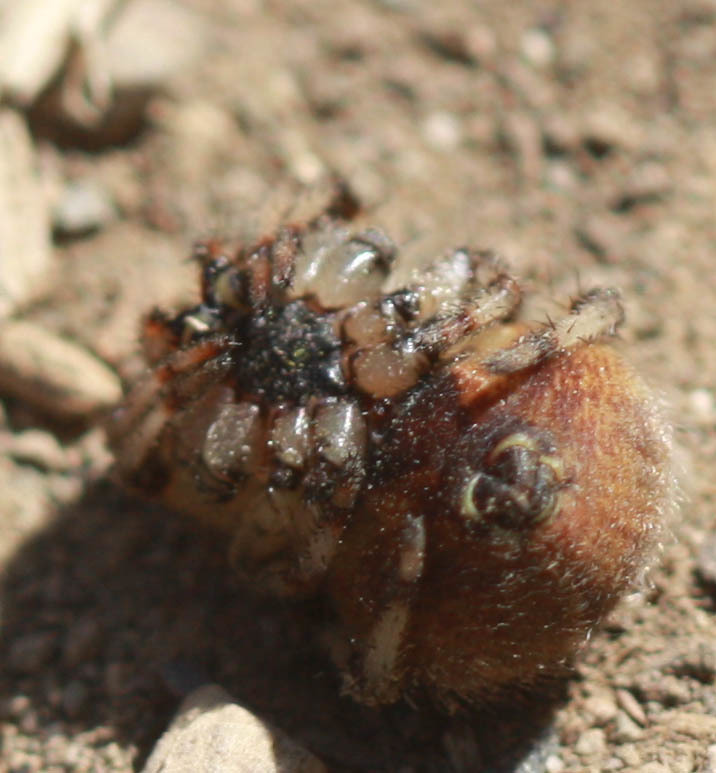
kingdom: Animalia
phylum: Arthropoda
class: Arachnida
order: Araneae
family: Araneidae
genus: Araneus
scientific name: Araneus trifolium
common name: Shamrock orbweaver
